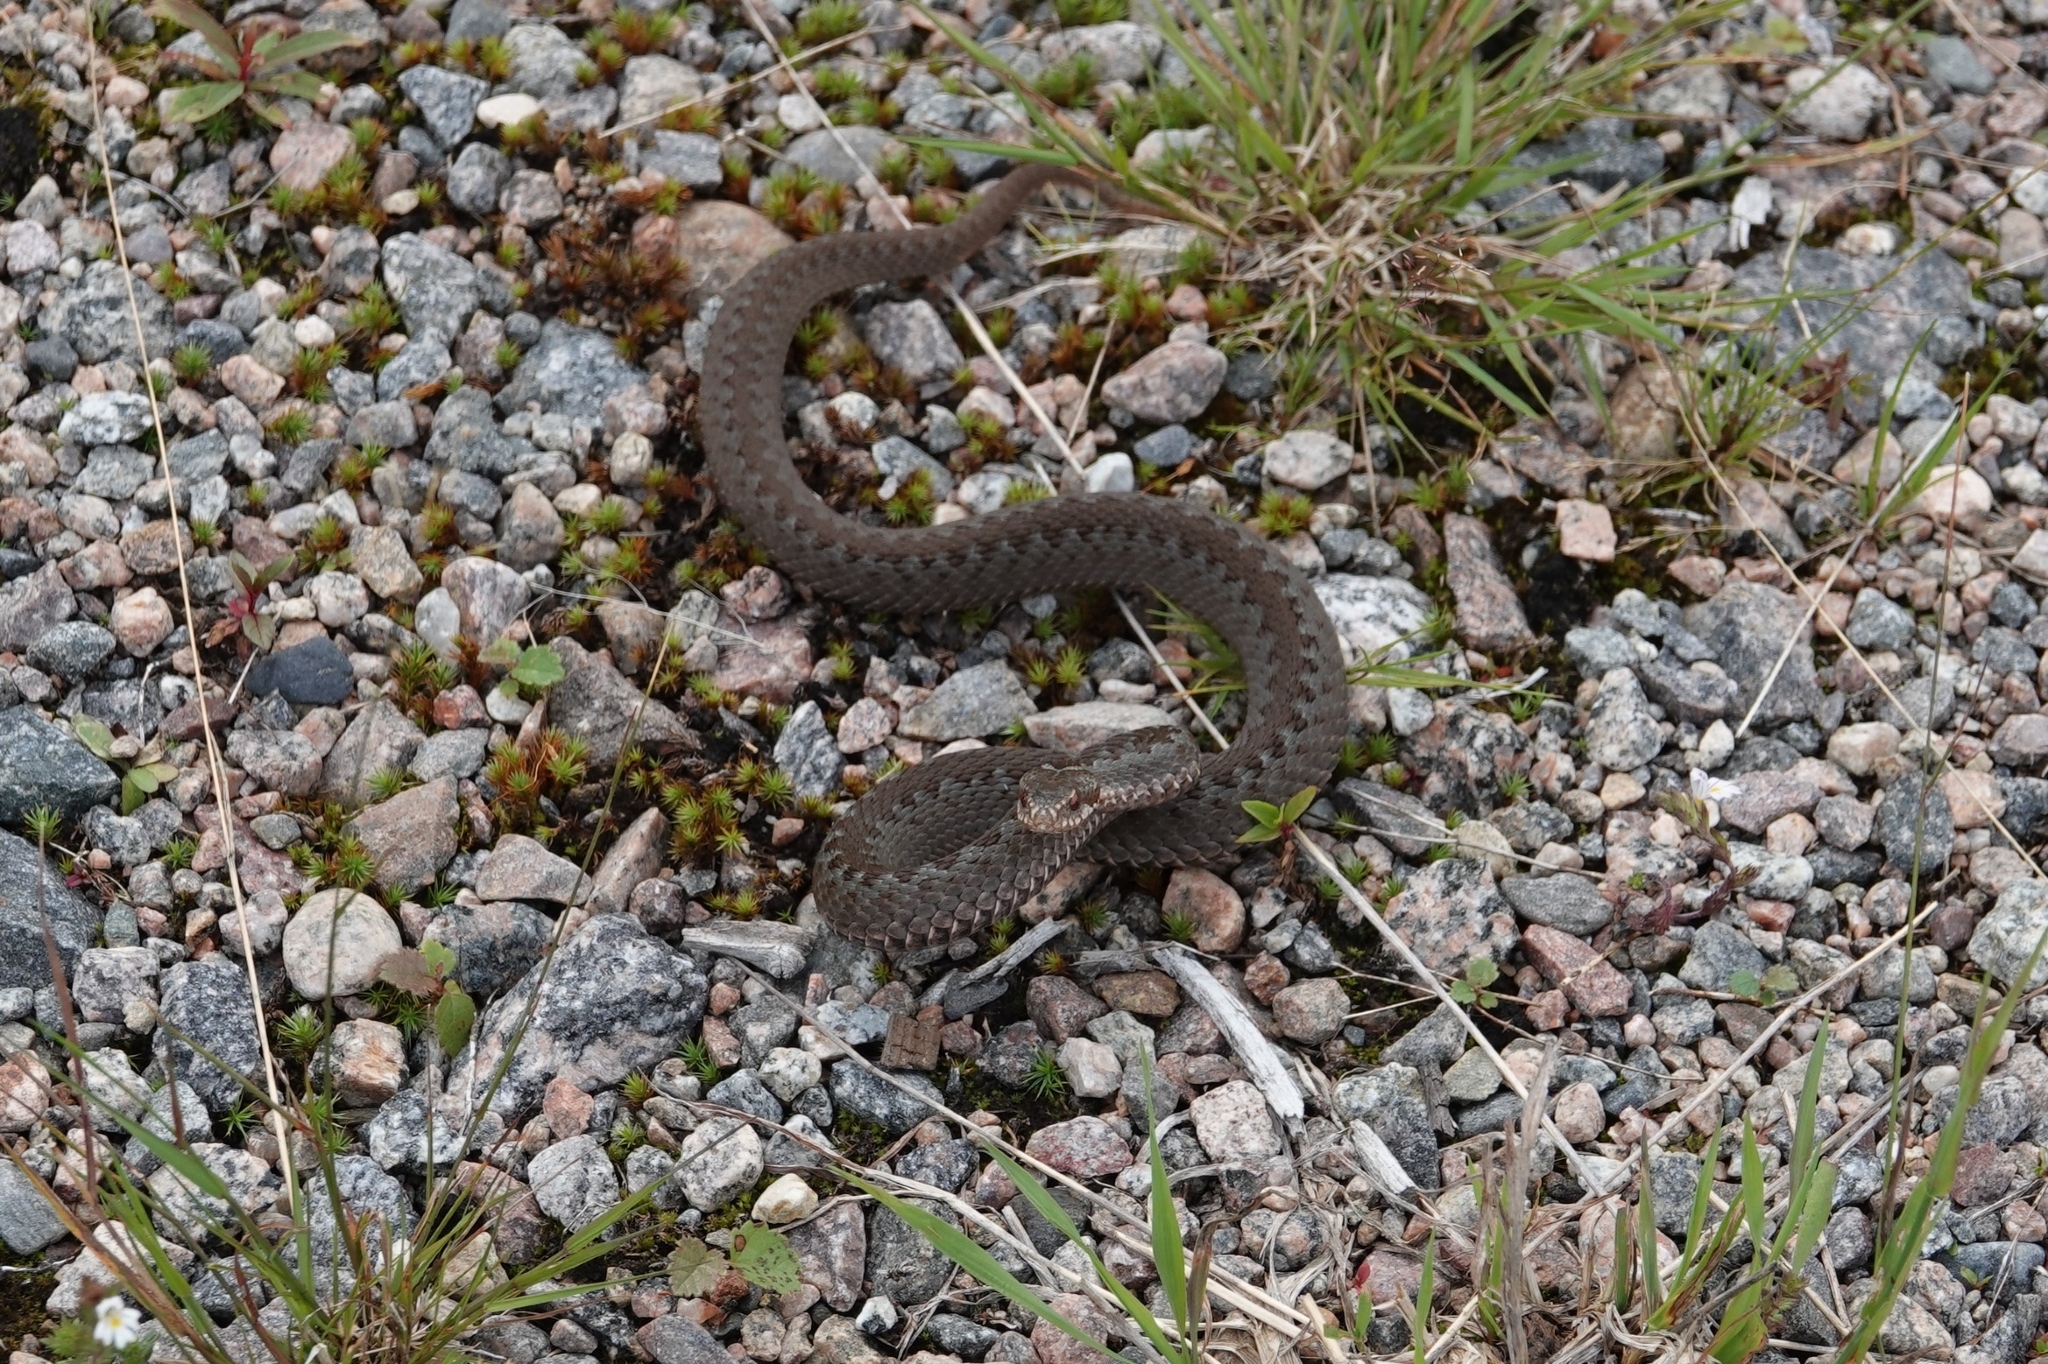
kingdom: Animalia
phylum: Chordata
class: Squamata
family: Viperidae
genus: Vipera
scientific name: Vipera berus
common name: Adder
